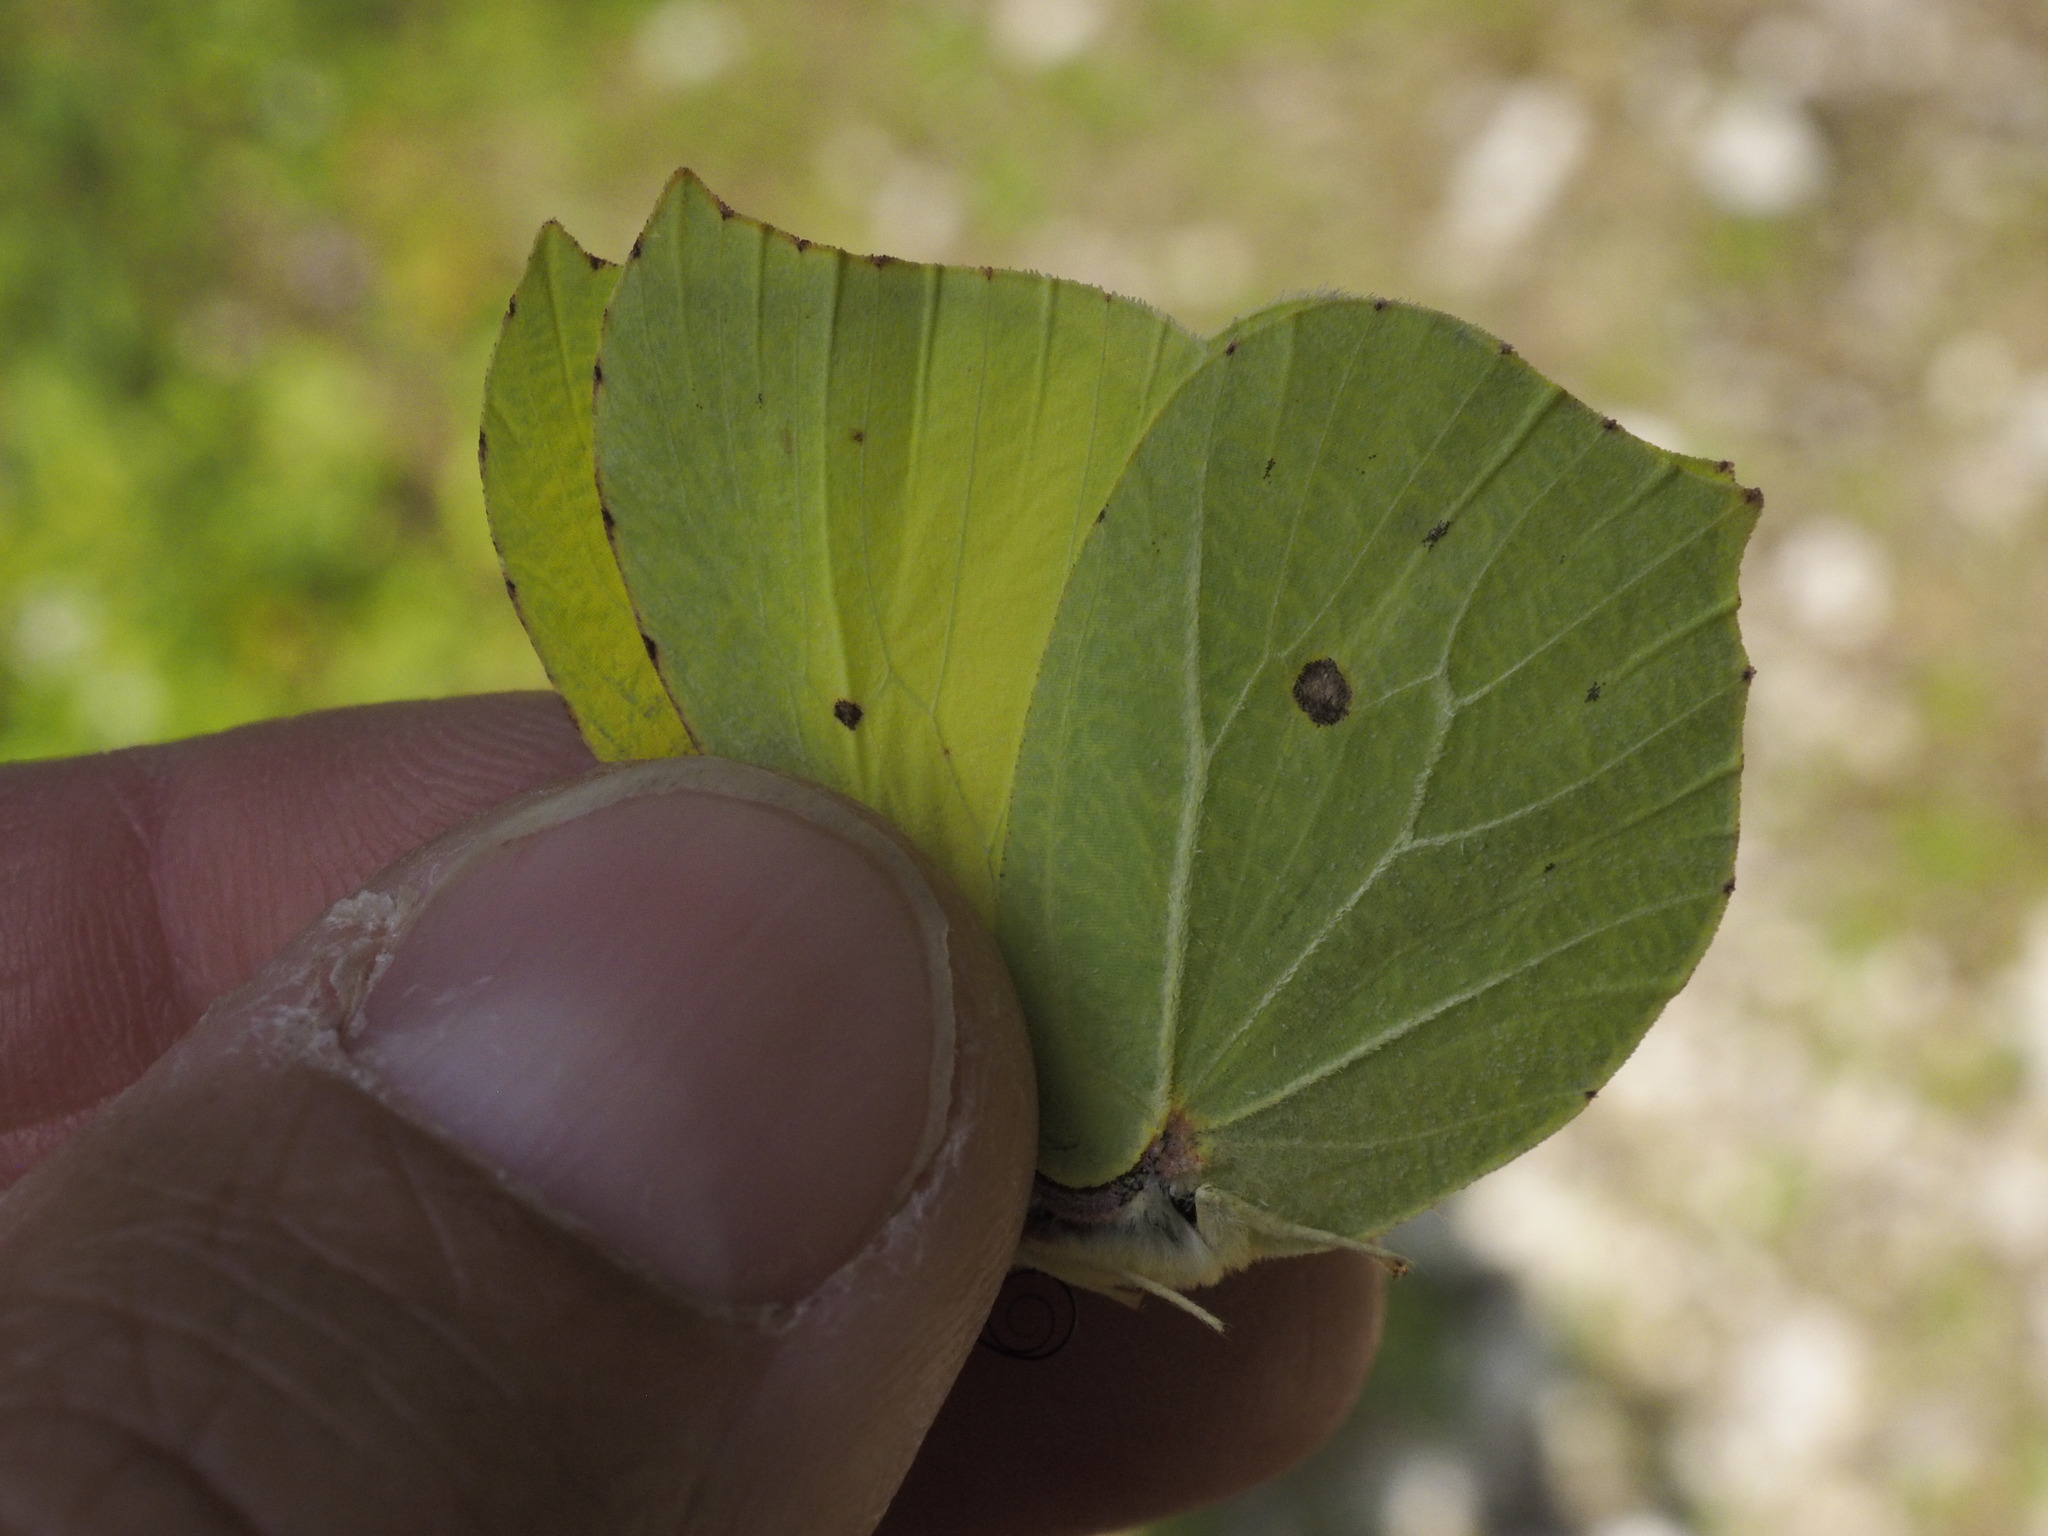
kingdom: Animalia
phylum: Arthropoda
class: Insecta
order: Lepidoptera
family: Pieridae
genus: Gonepteryx
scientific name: Gonepteryx rhamni
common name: Brimstone
